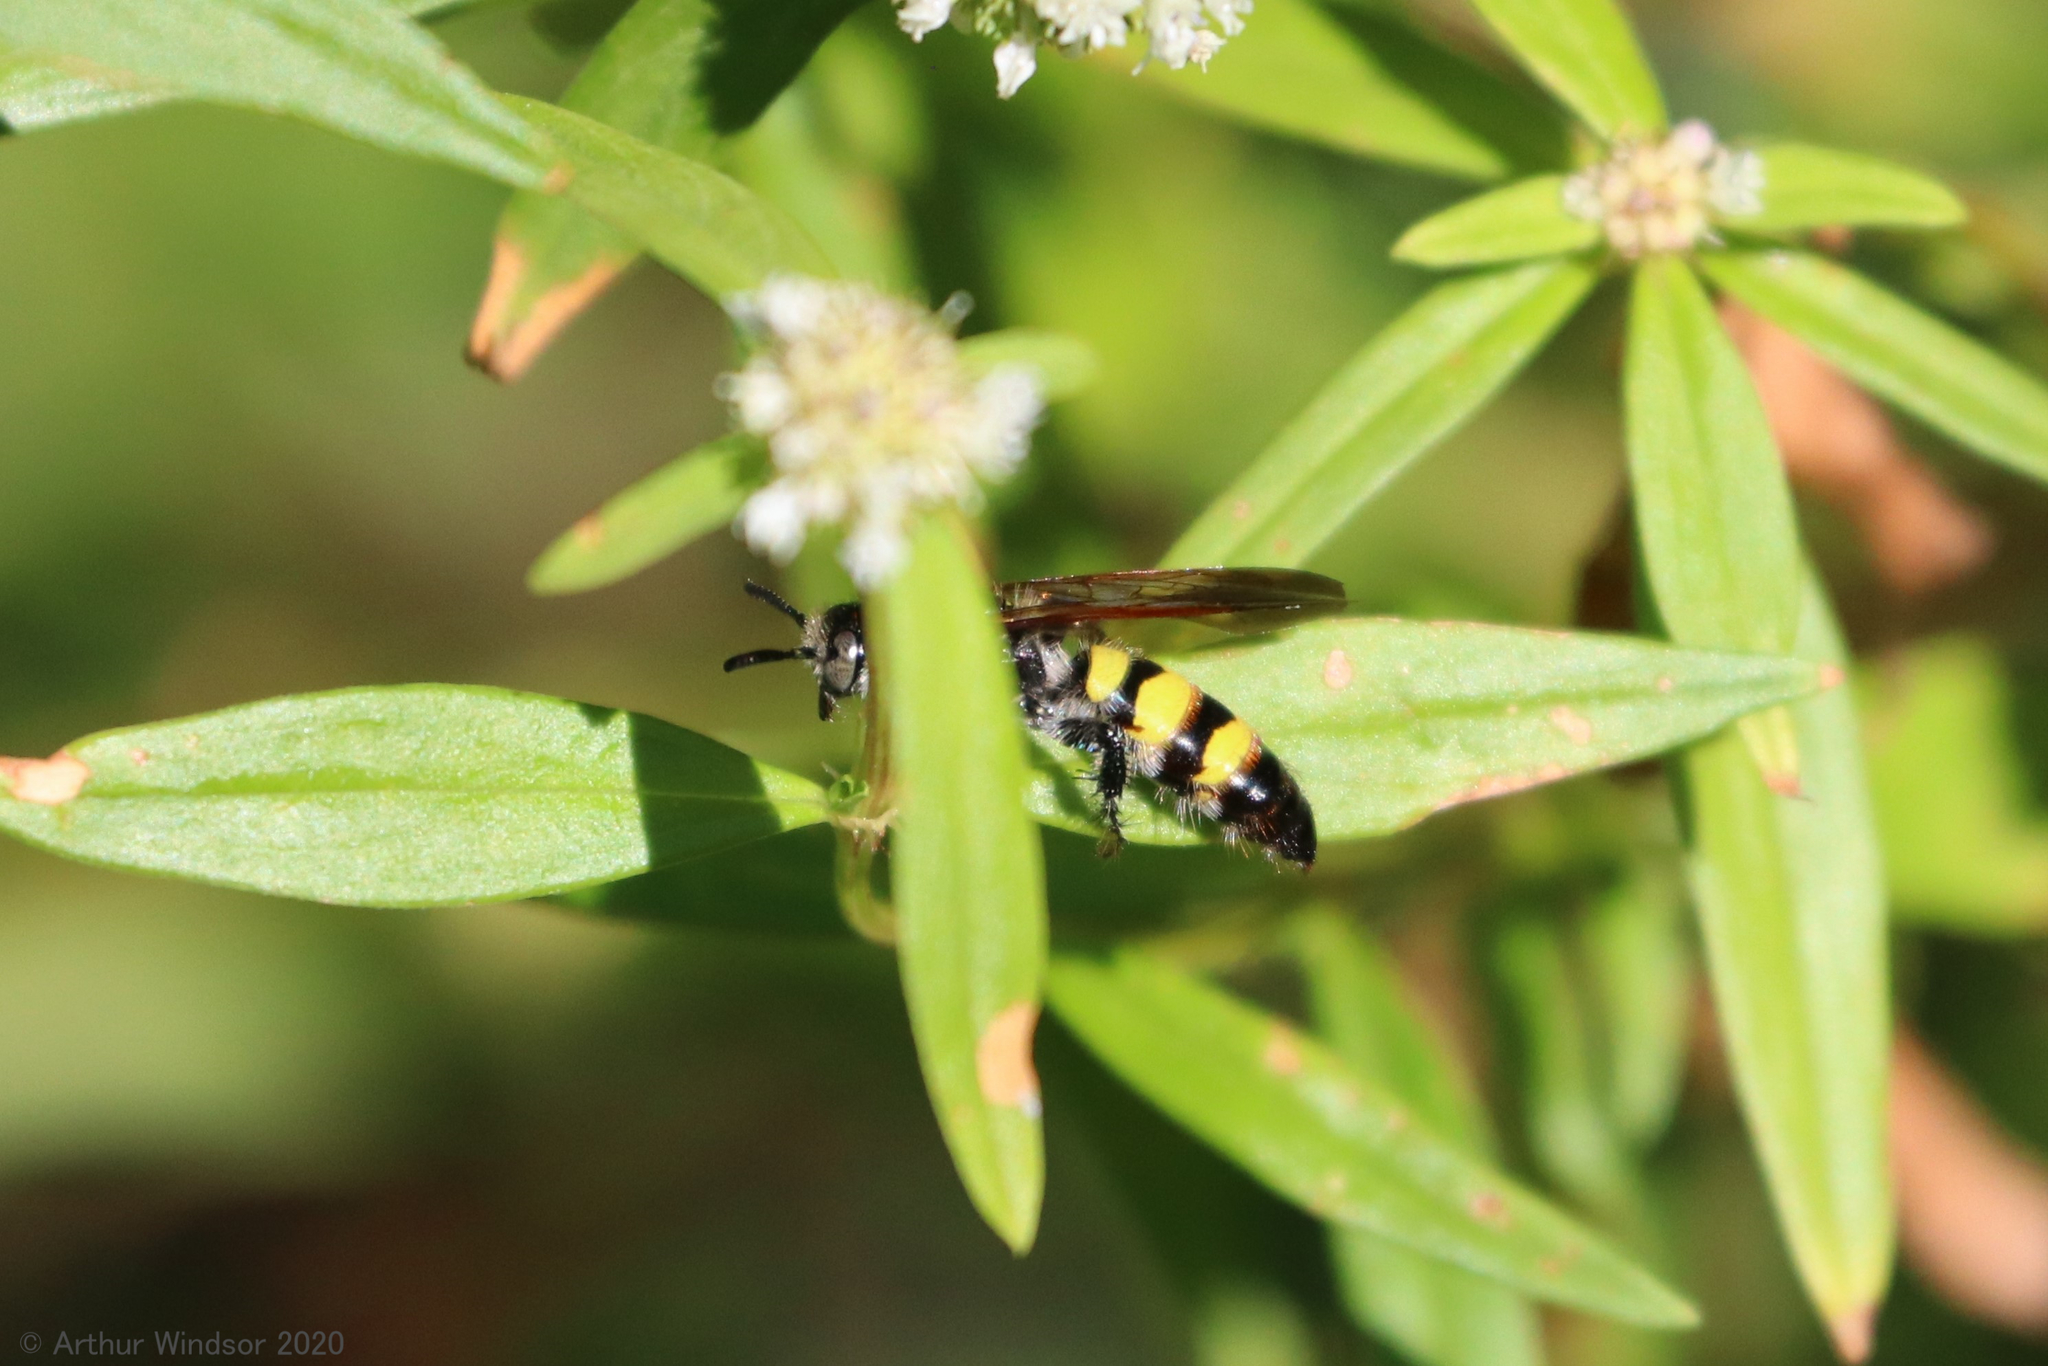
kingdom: Animalia
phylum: Arthropoda
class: Insecta
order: Hymenoptera
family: Scoliidae
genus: Dielis
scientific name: Dielis
